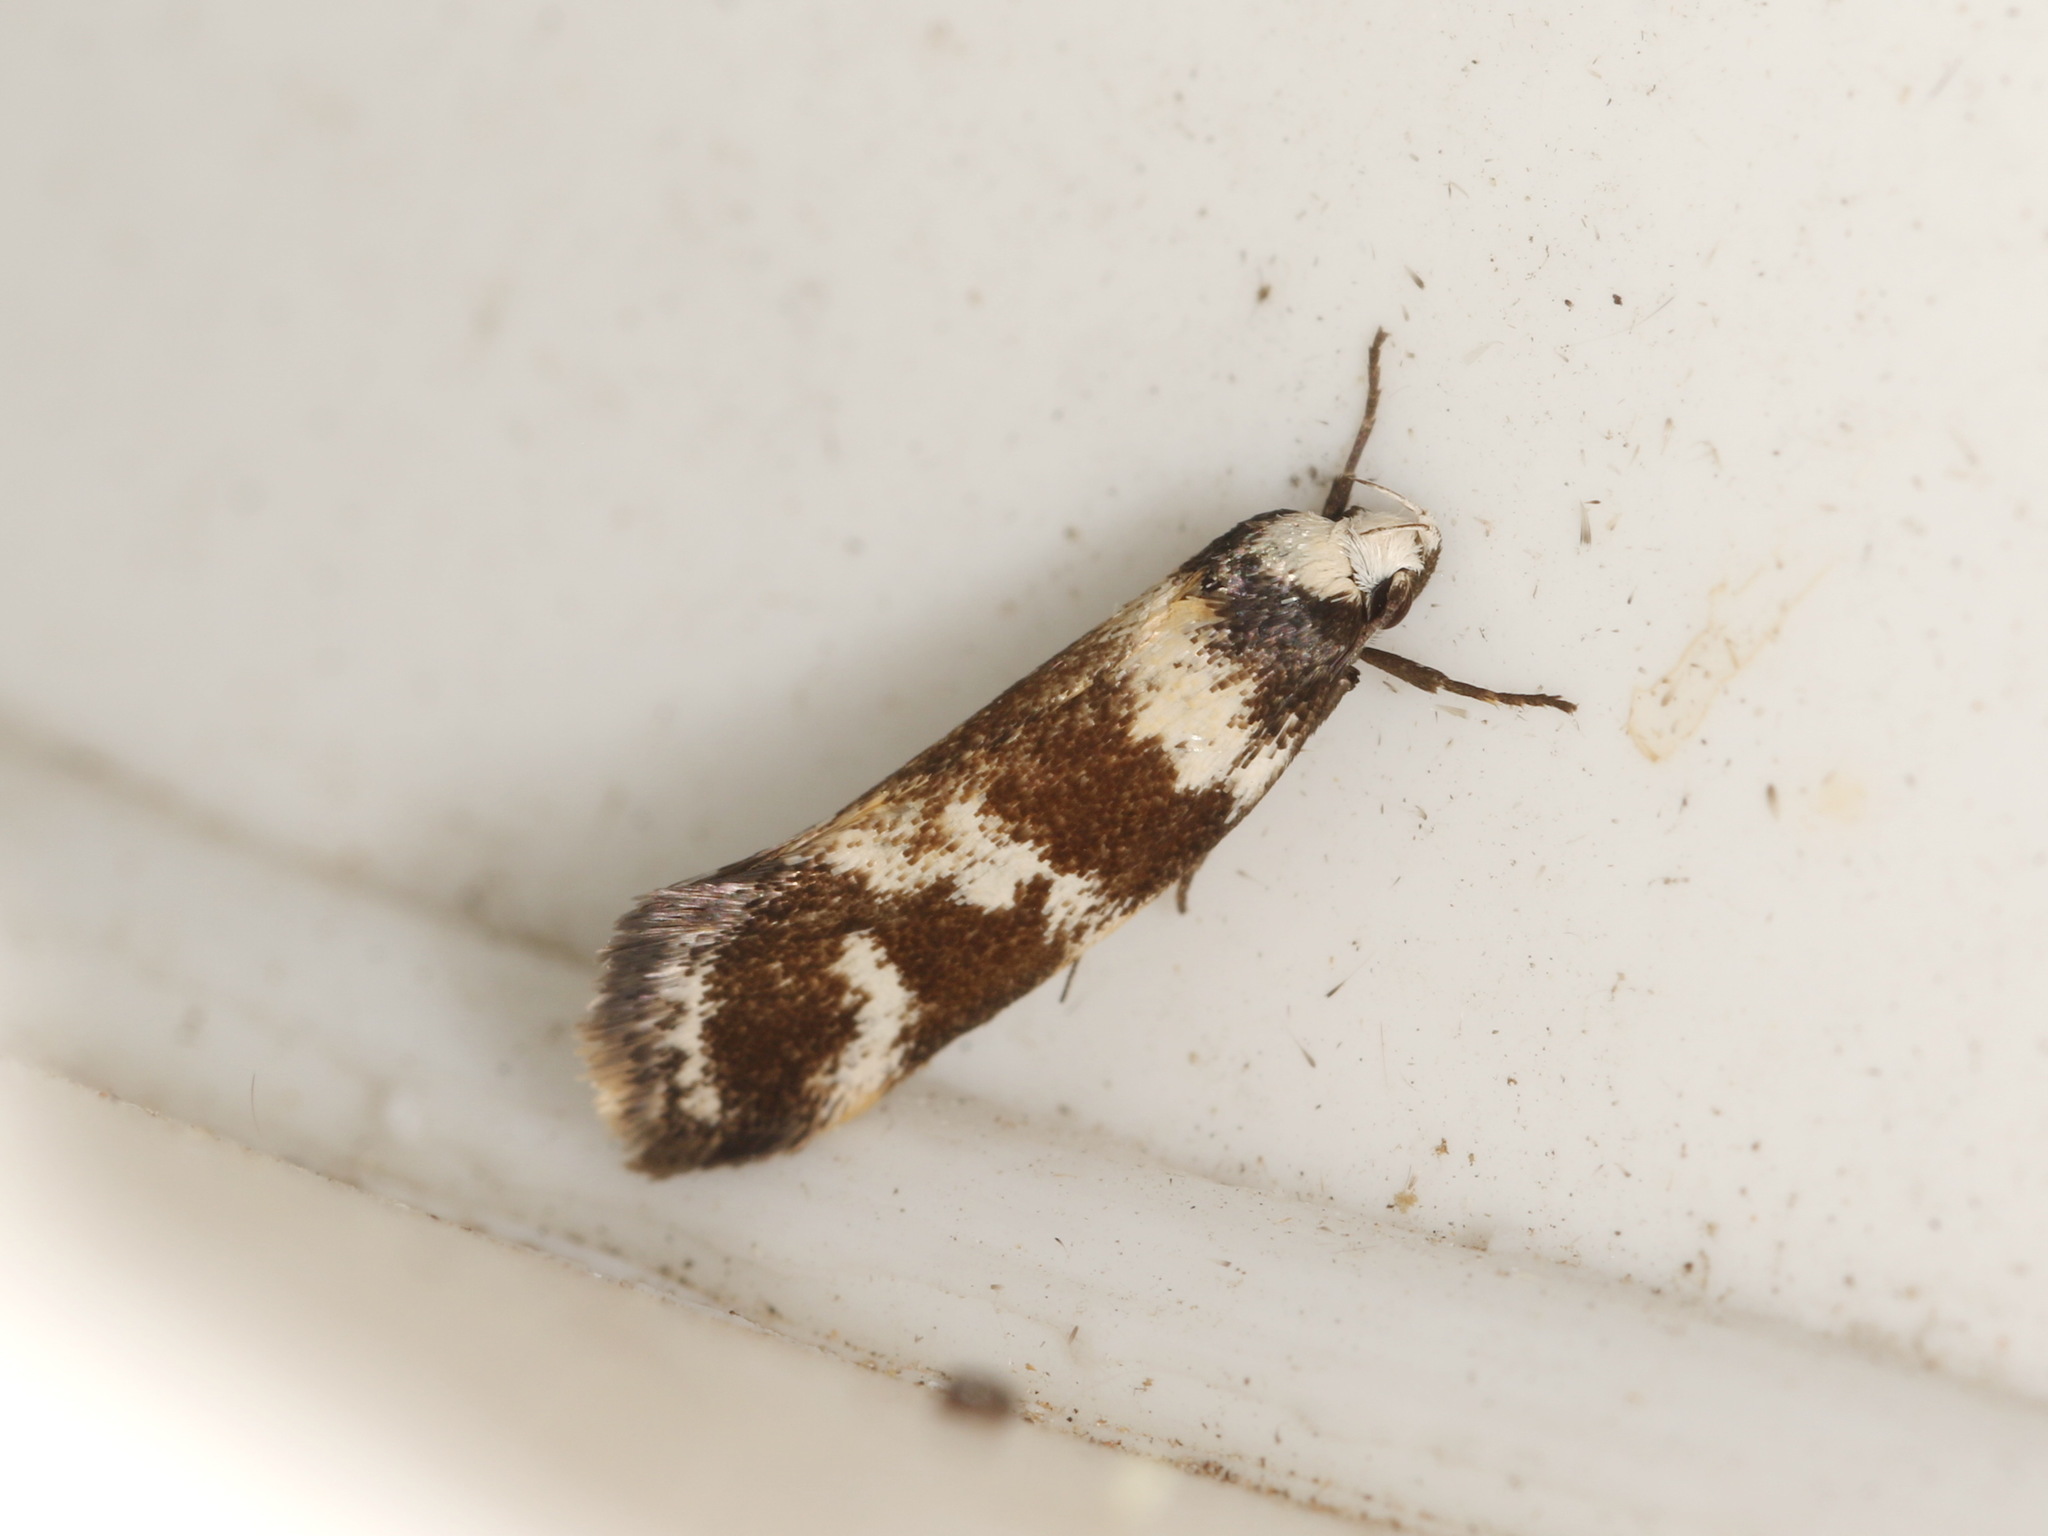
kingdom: Animalia
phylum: Arthropoda
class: Insecta
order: Lepidoptera
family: Oecophoridae
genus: Isomoralla
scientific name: Isomoralla eriscota
